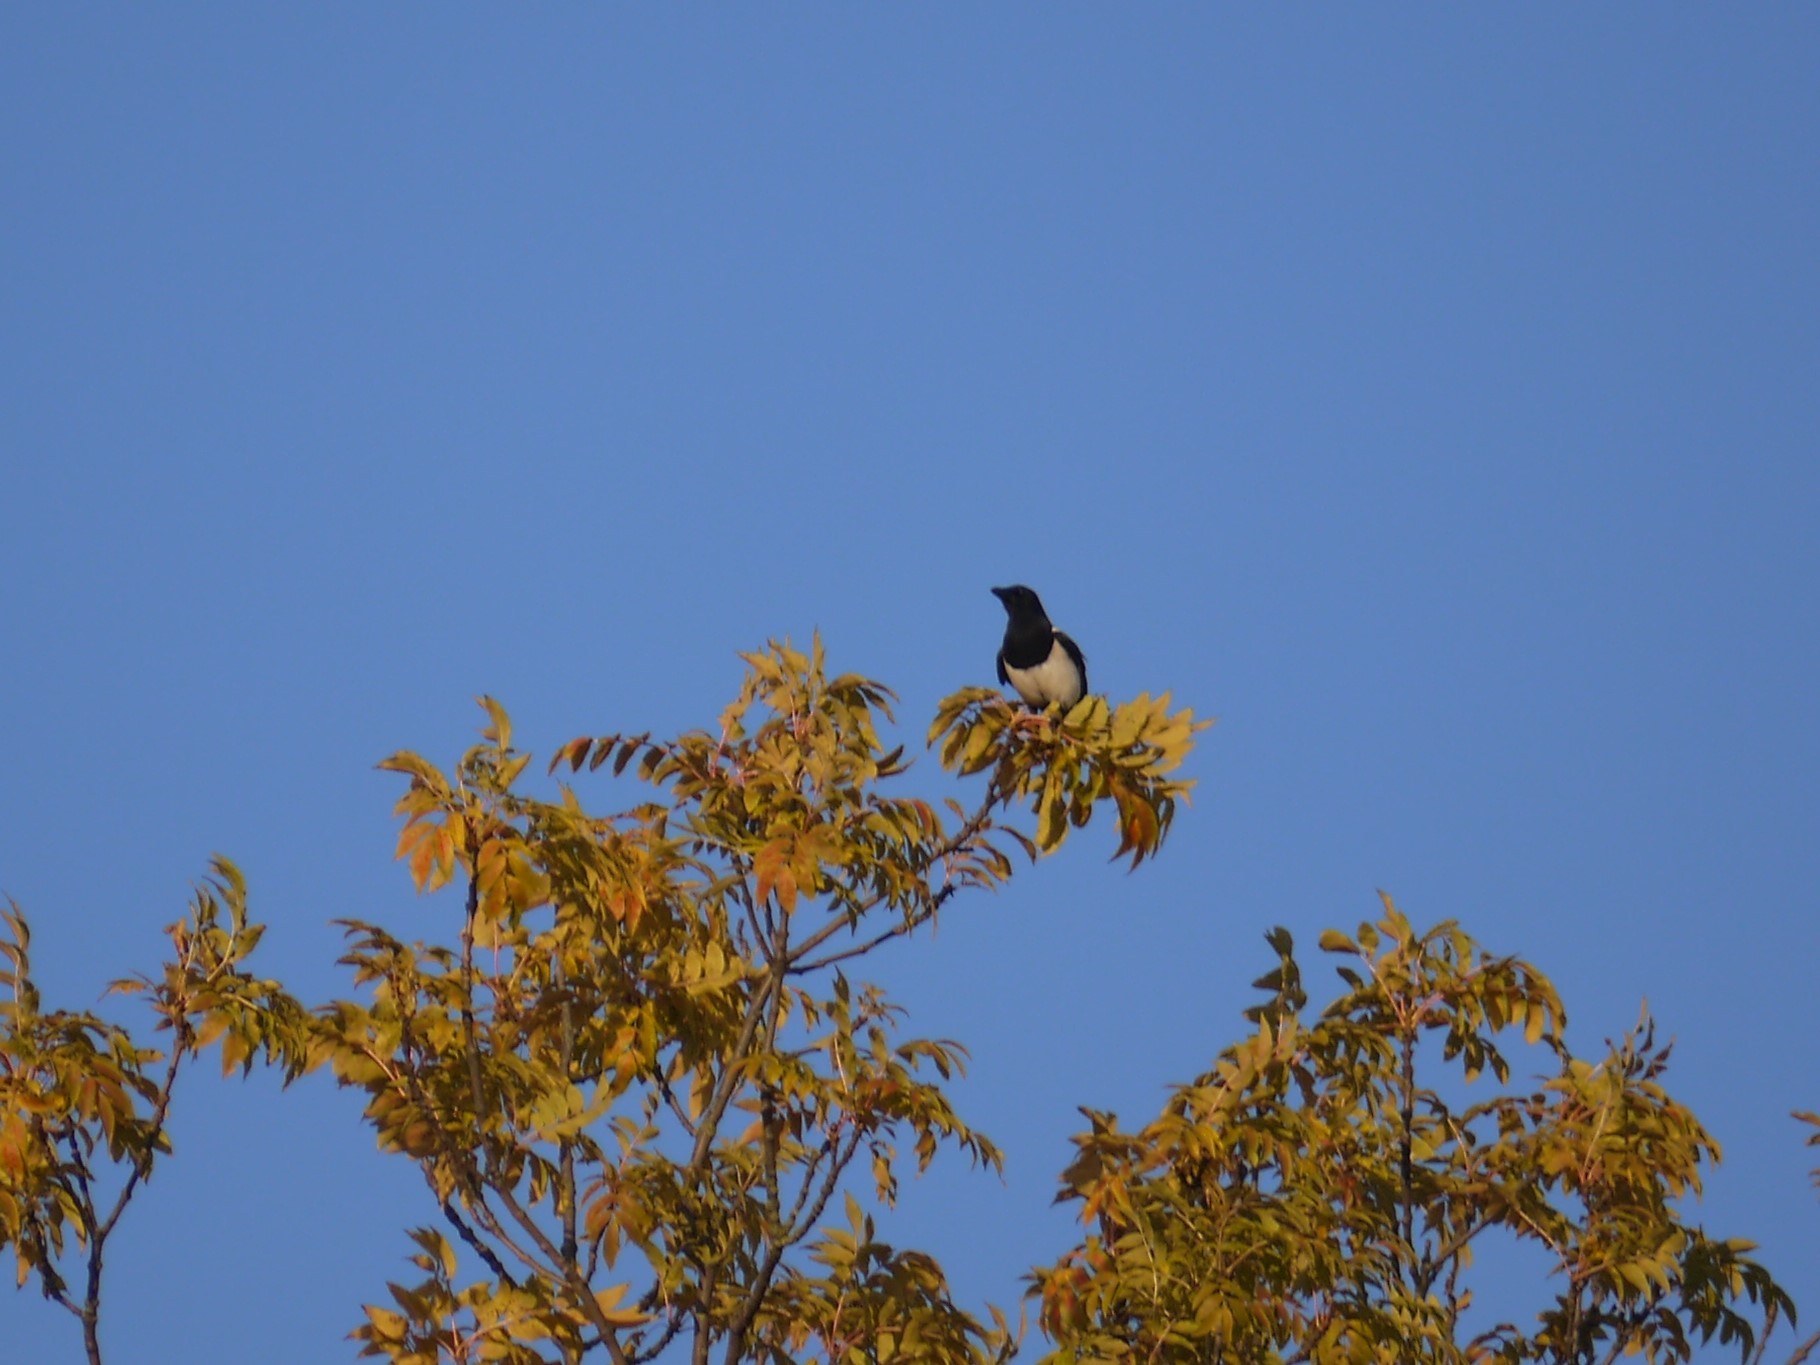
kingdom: Animalia
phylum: Chordata
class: Aves
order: Passeriformes
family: Corvidae
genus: Pica
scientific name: Pica pica
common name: Eurasian magpie
